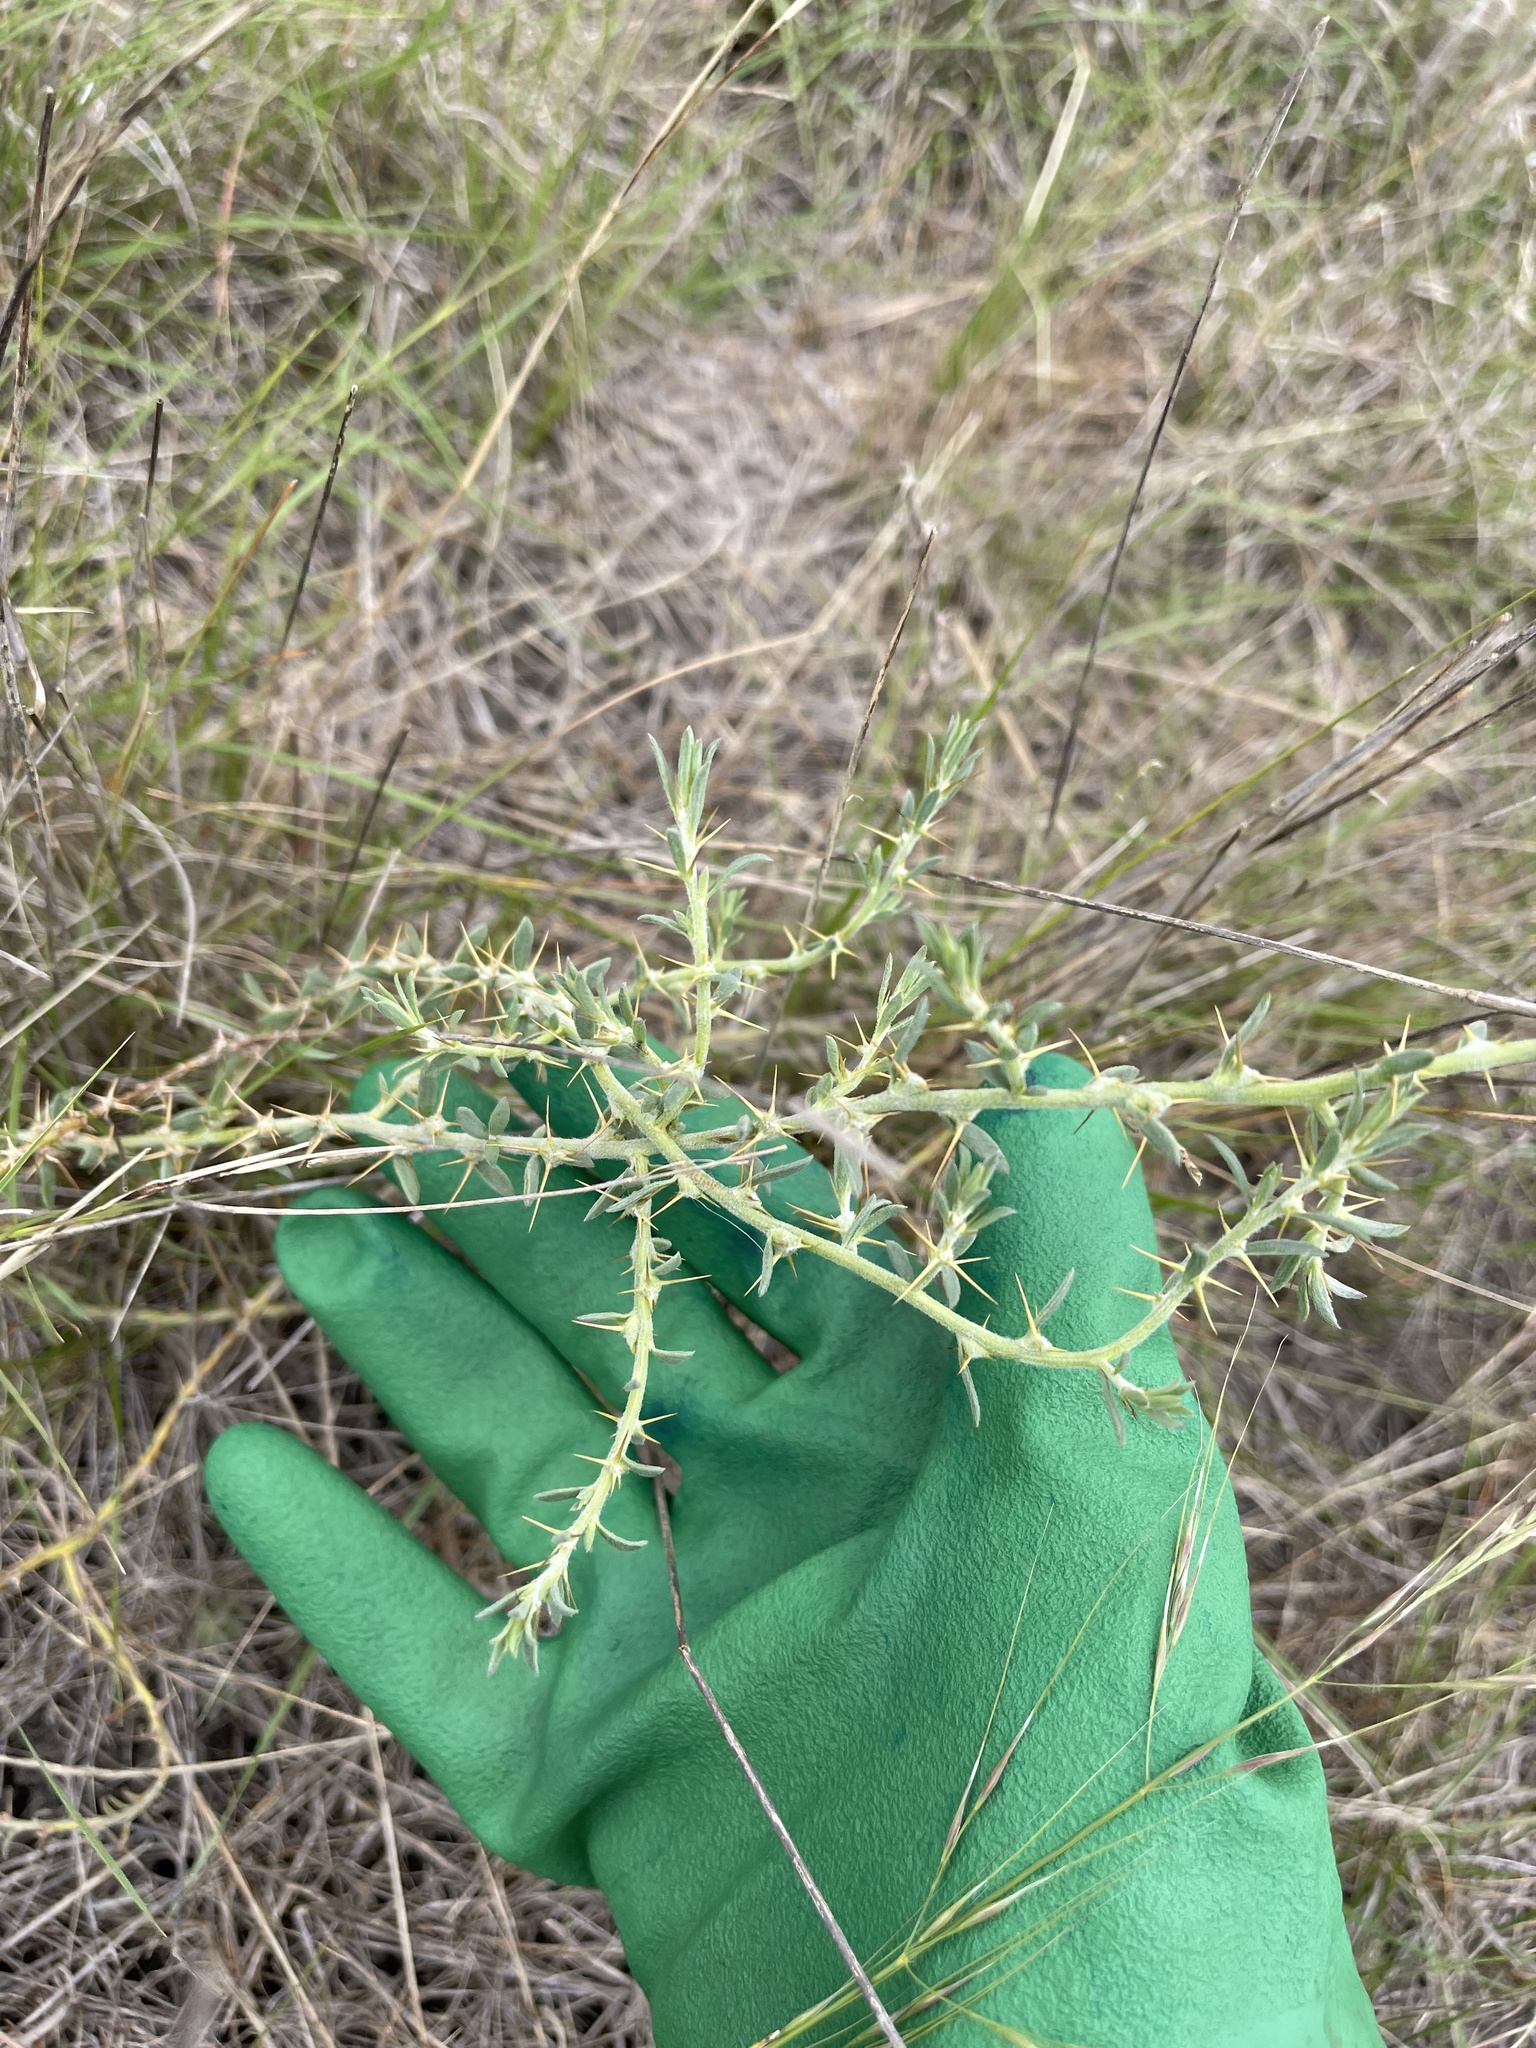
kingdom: Plantae
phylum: Tracheophyta
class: Magnoliopsida
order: Caryophyllales
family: Amaranthaceae
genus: Sclerolaena
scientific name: Sclerolaena muricata
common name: Roly-poly
